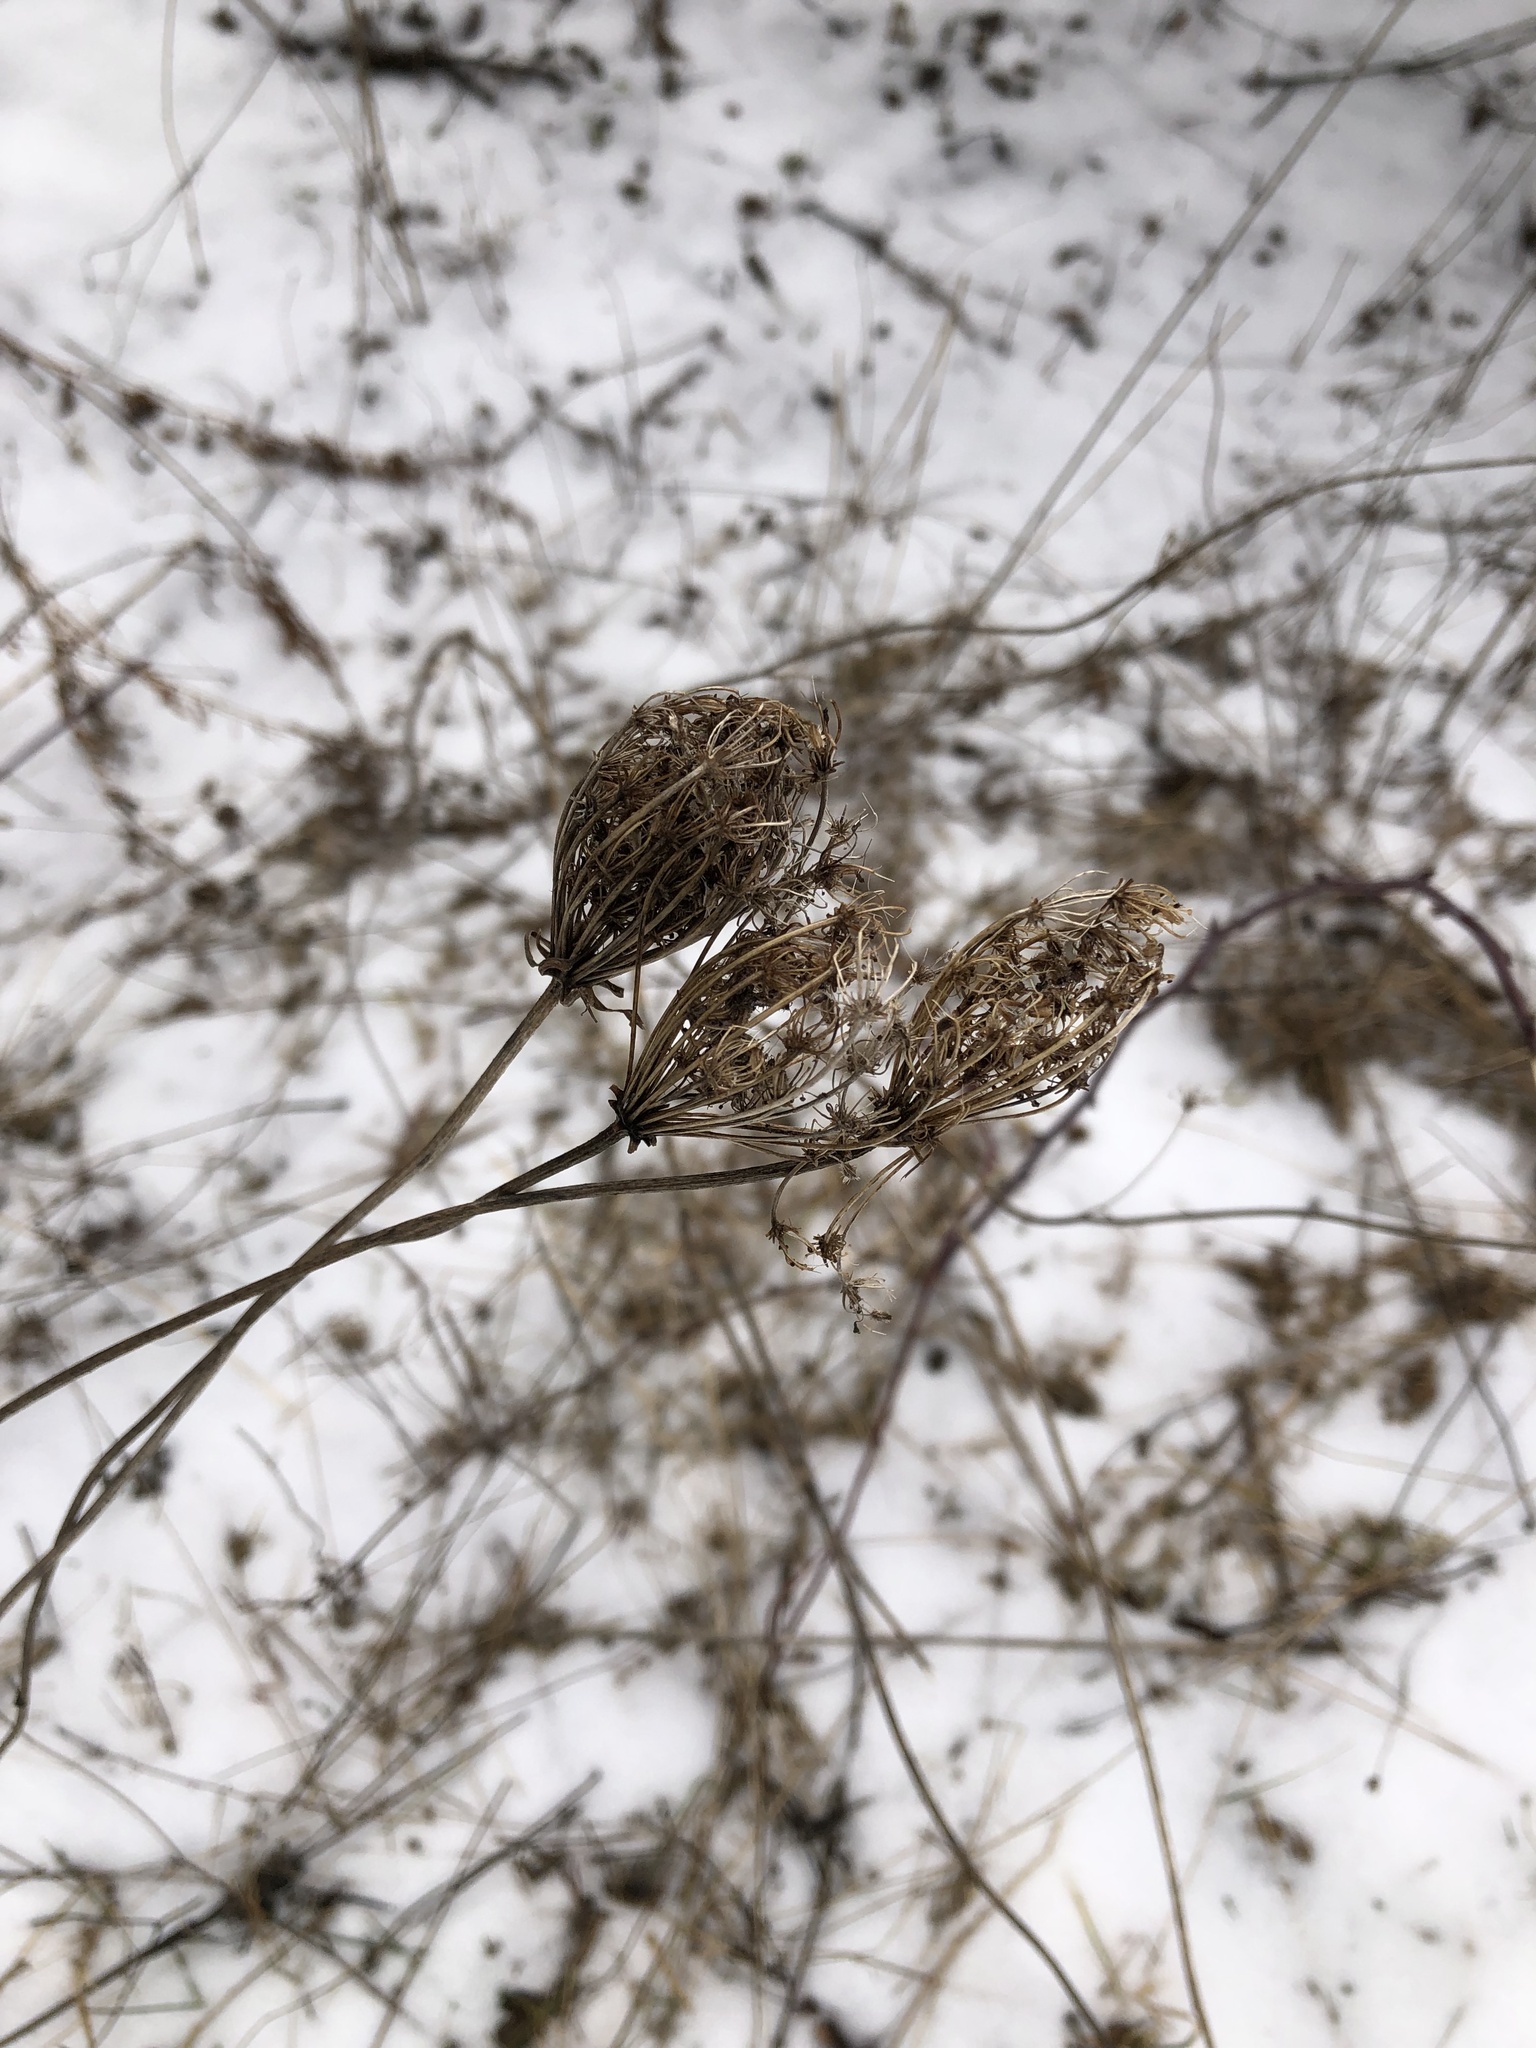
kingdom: Plantae
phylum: Tracheophyta
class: Magnoliopsida
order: Apiales
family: Apiaceae
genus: Daucus
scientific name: Daucus carota
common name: Wild carrot
